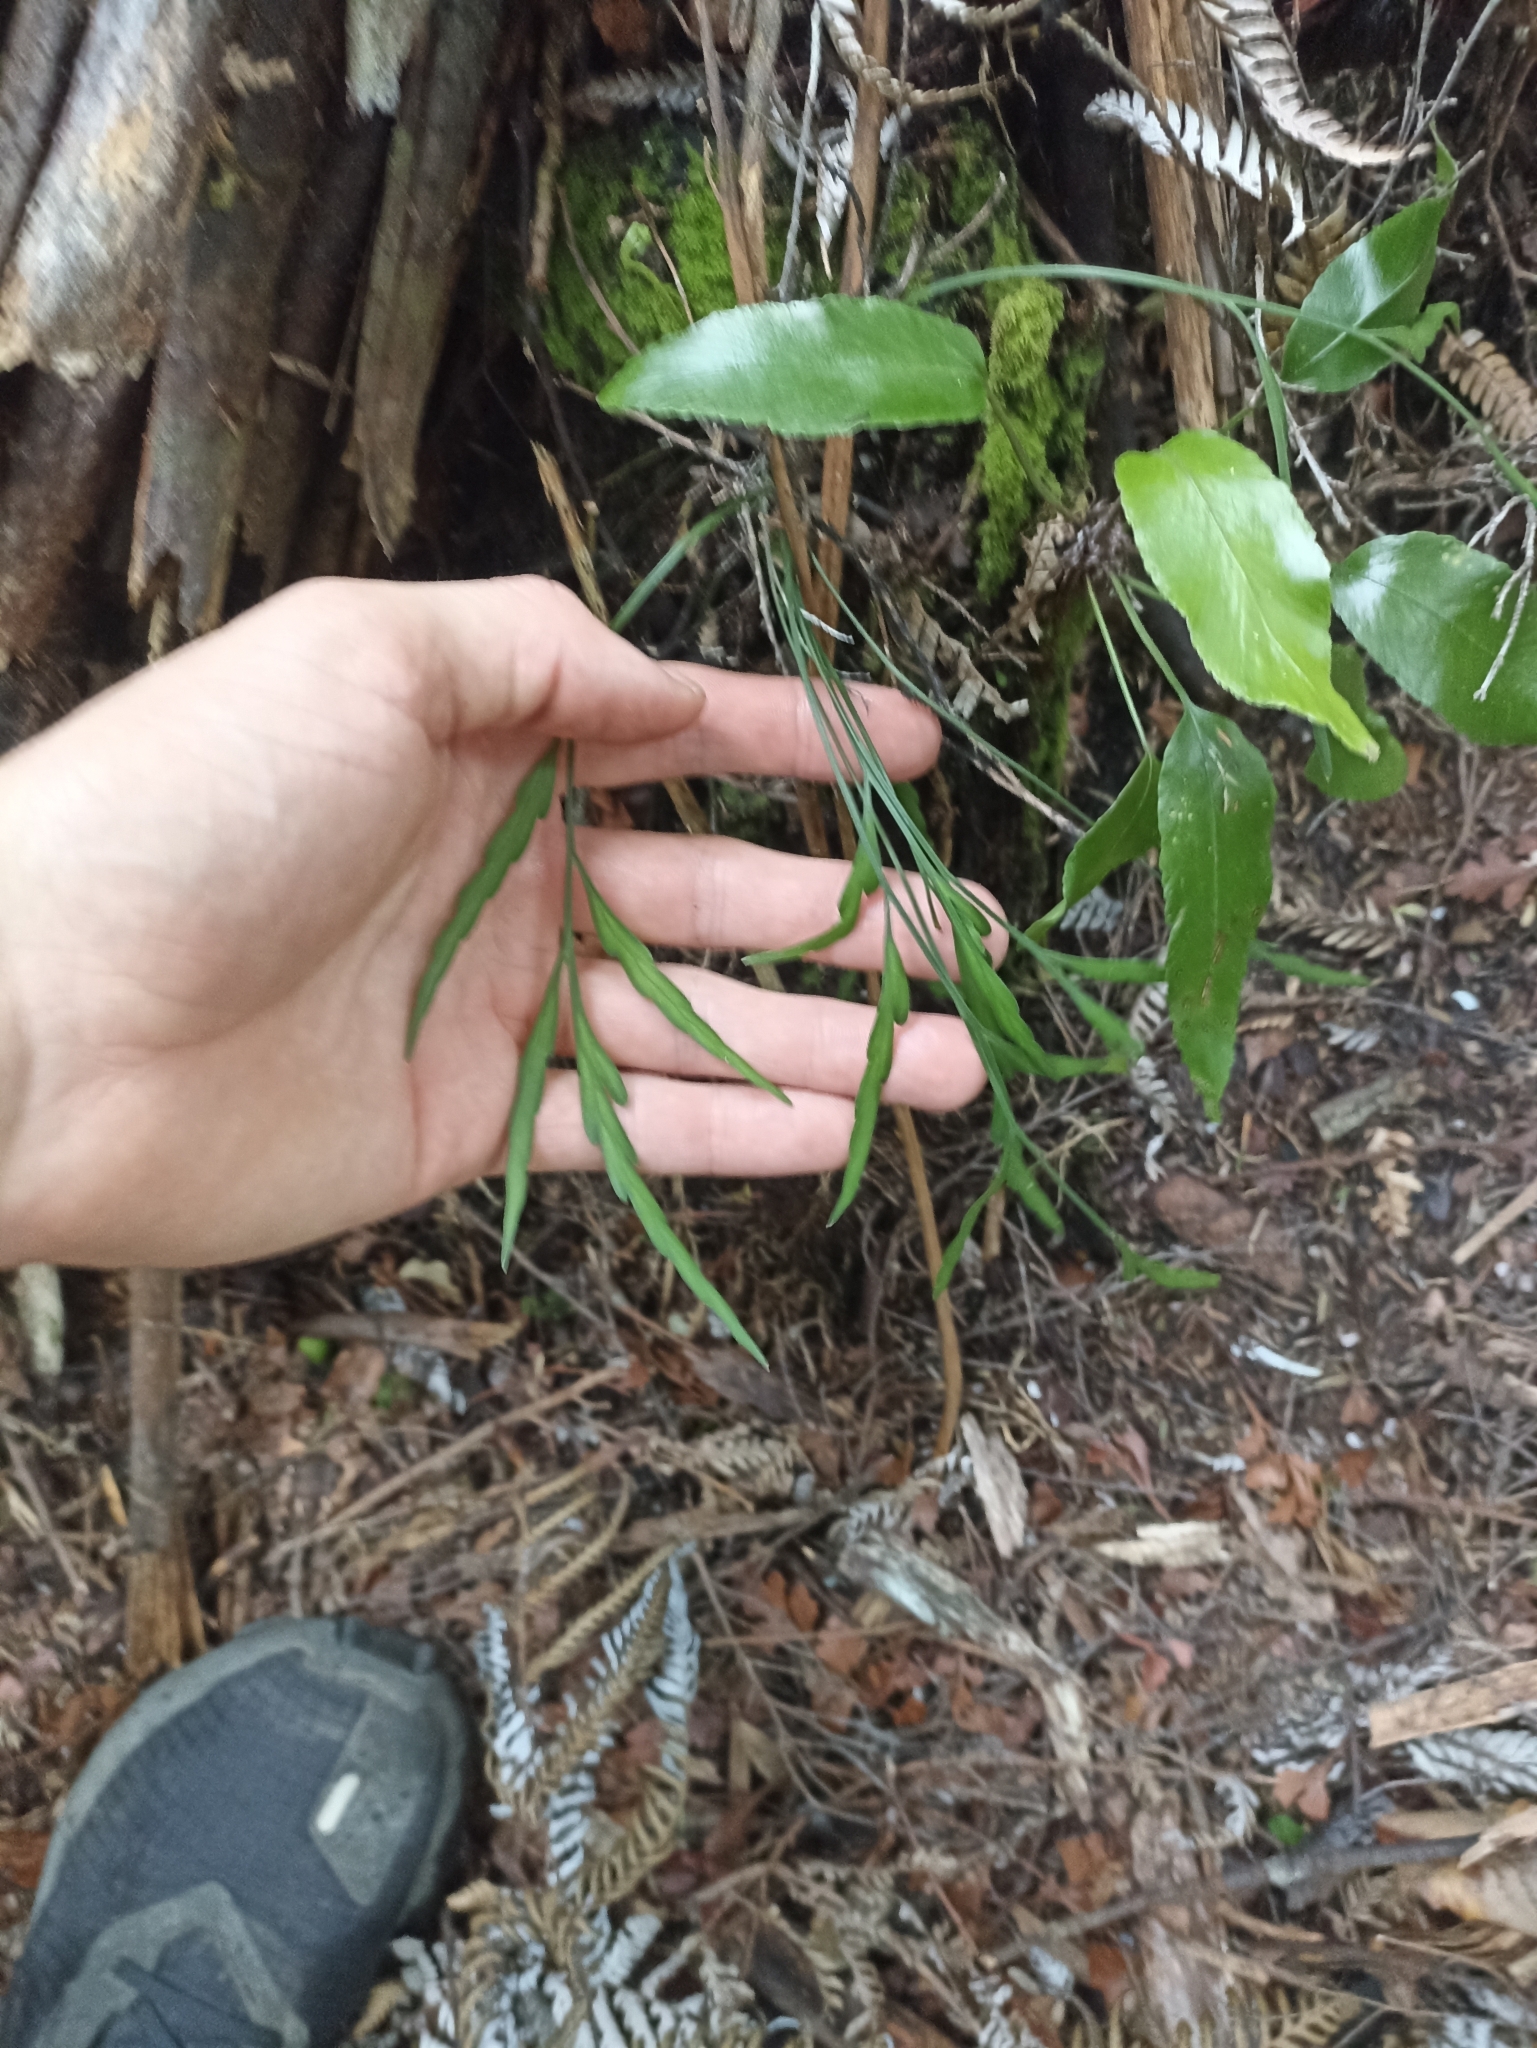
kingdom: Plantae
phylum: Tracheophyta
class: Polypodiopsida
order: Polypodiales
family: Aspleniaceae
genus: Asplenium
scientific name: Asplenium flaccidum
